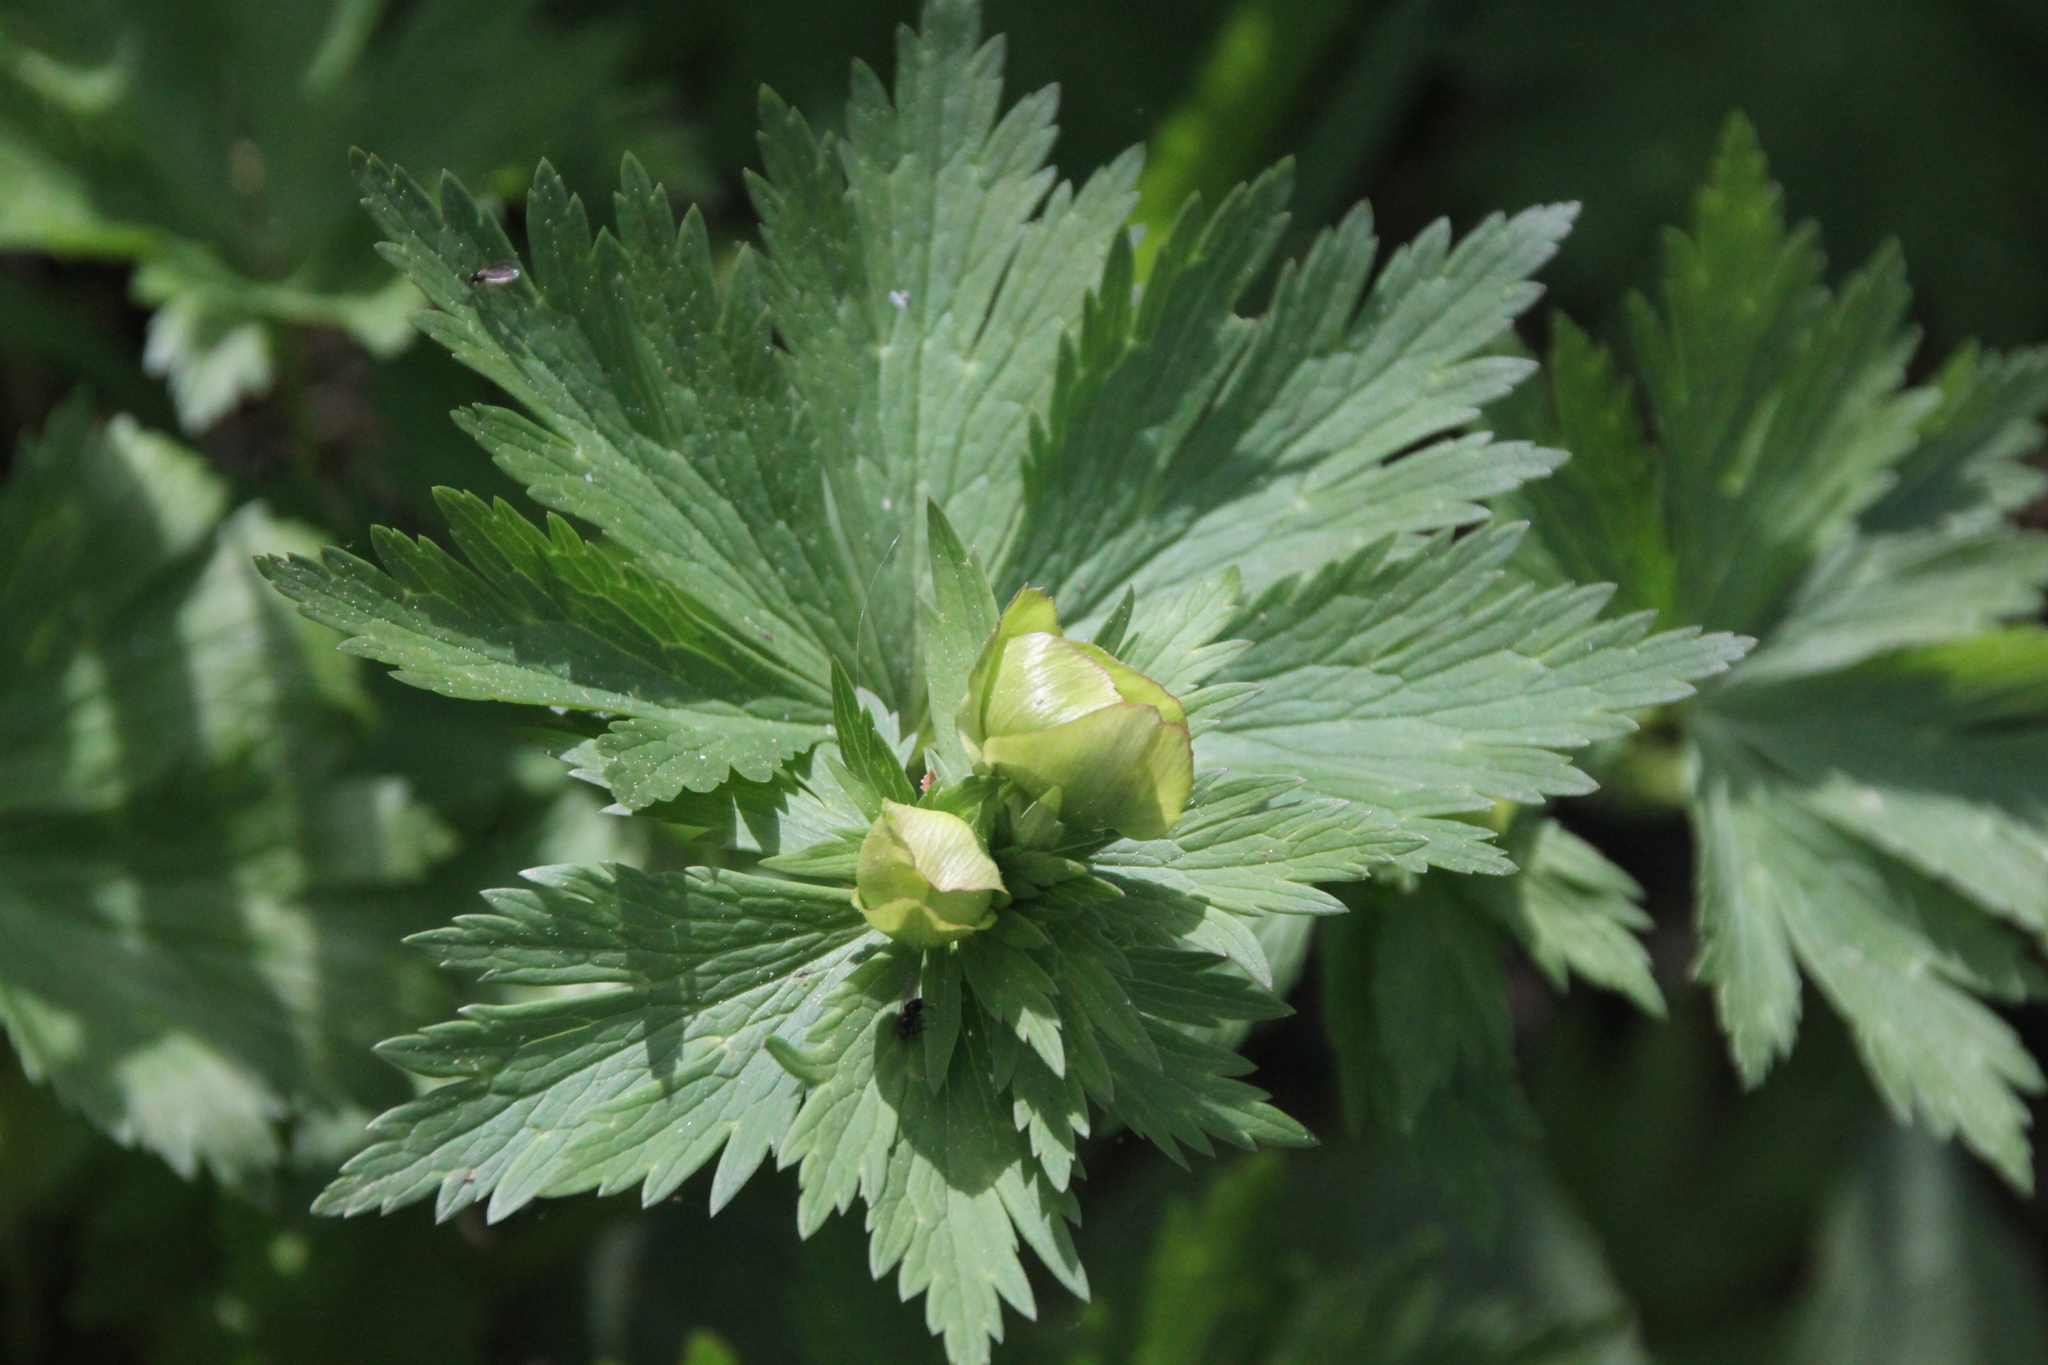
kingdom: Plantae
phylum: Tracheophyta
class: Magnoliopsida
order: Ranunculales
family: Ranunculaceae
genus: Trollius
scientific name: Trollius europaeus
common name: European globeflower
